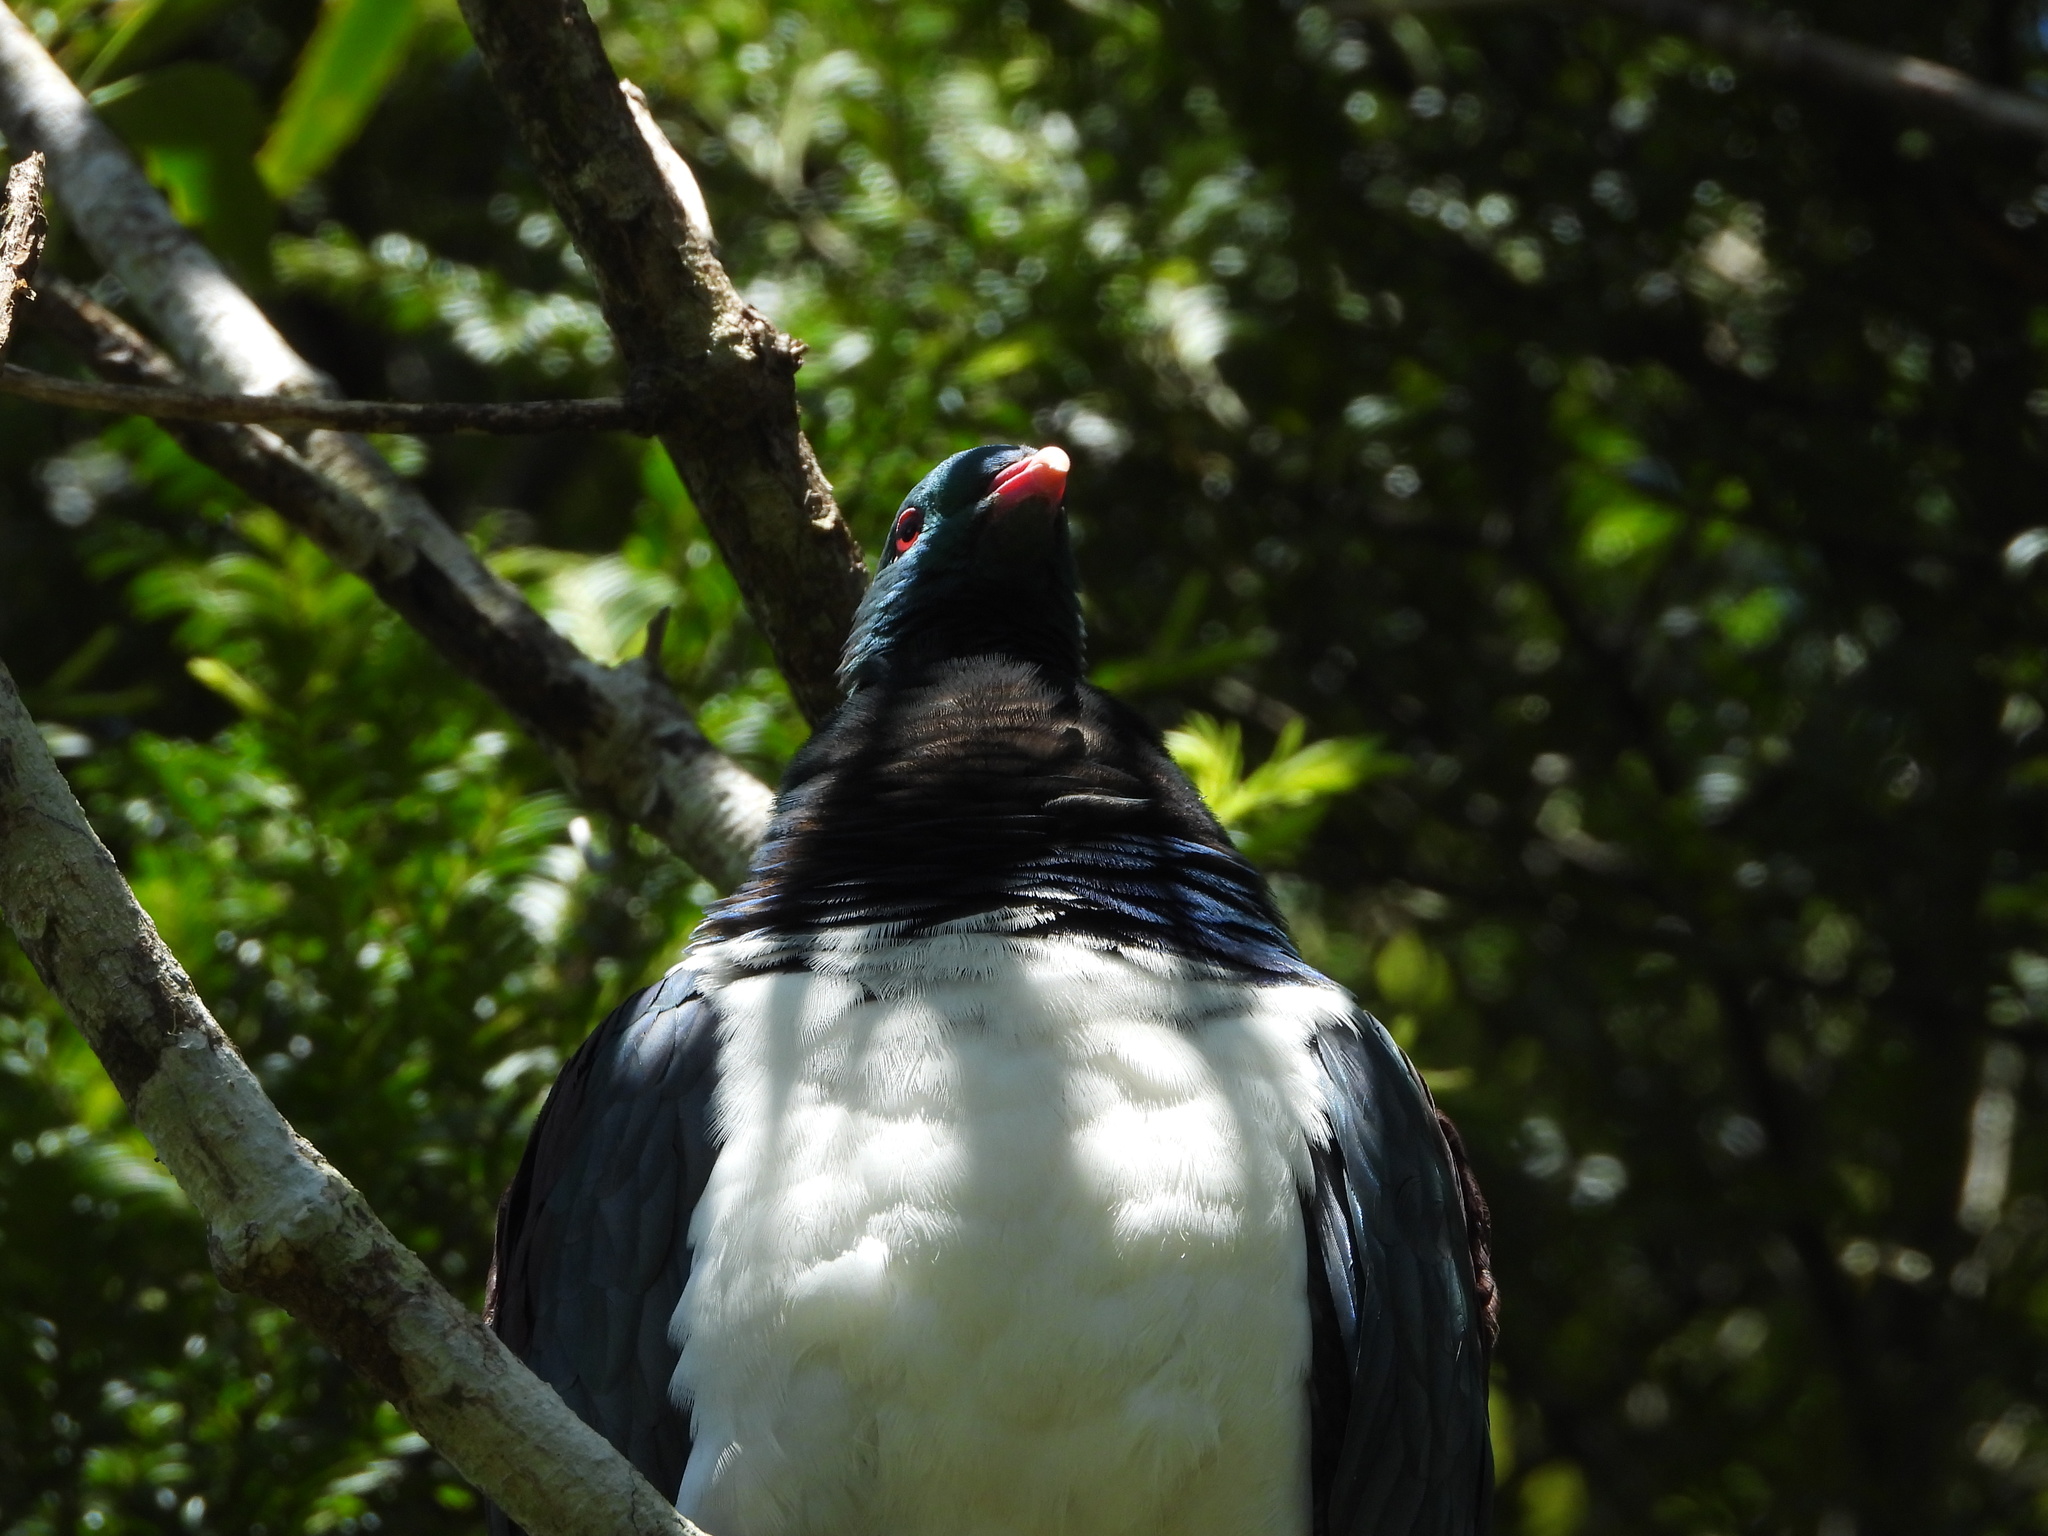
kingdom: Animalia
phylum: Chordata
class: Aves
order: Columbiformes
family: Columbidae
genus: Hemiphaga
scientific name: Hemiphaga novaeseelandiae
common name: New zealand pigeon
